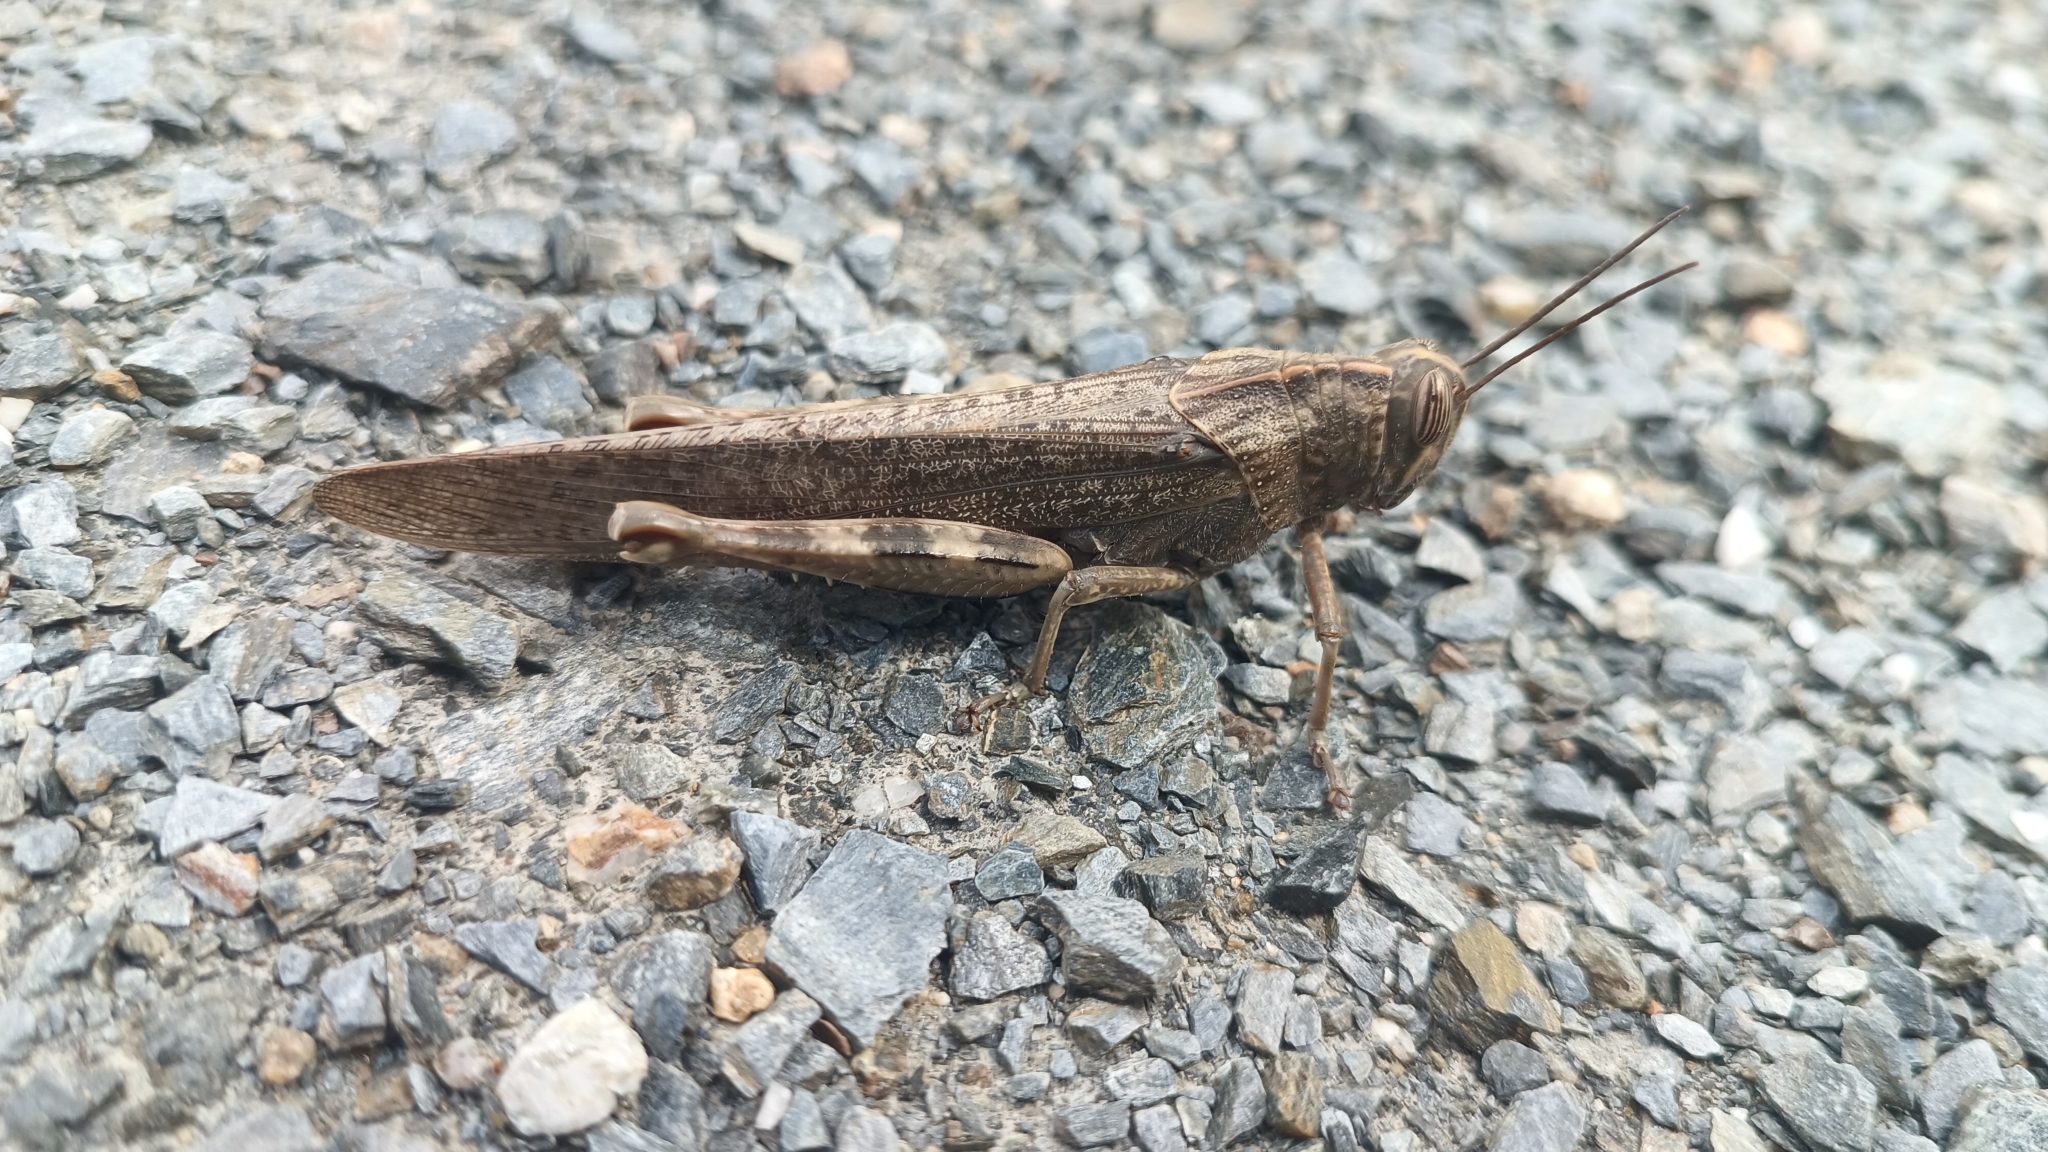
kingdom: Animalia
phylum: Arthropoda
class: Insecta
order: Orthoptera
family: Acrididae
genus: Anacridium
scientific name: Anacridium aegyptium
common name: Egyptian grasshopper
